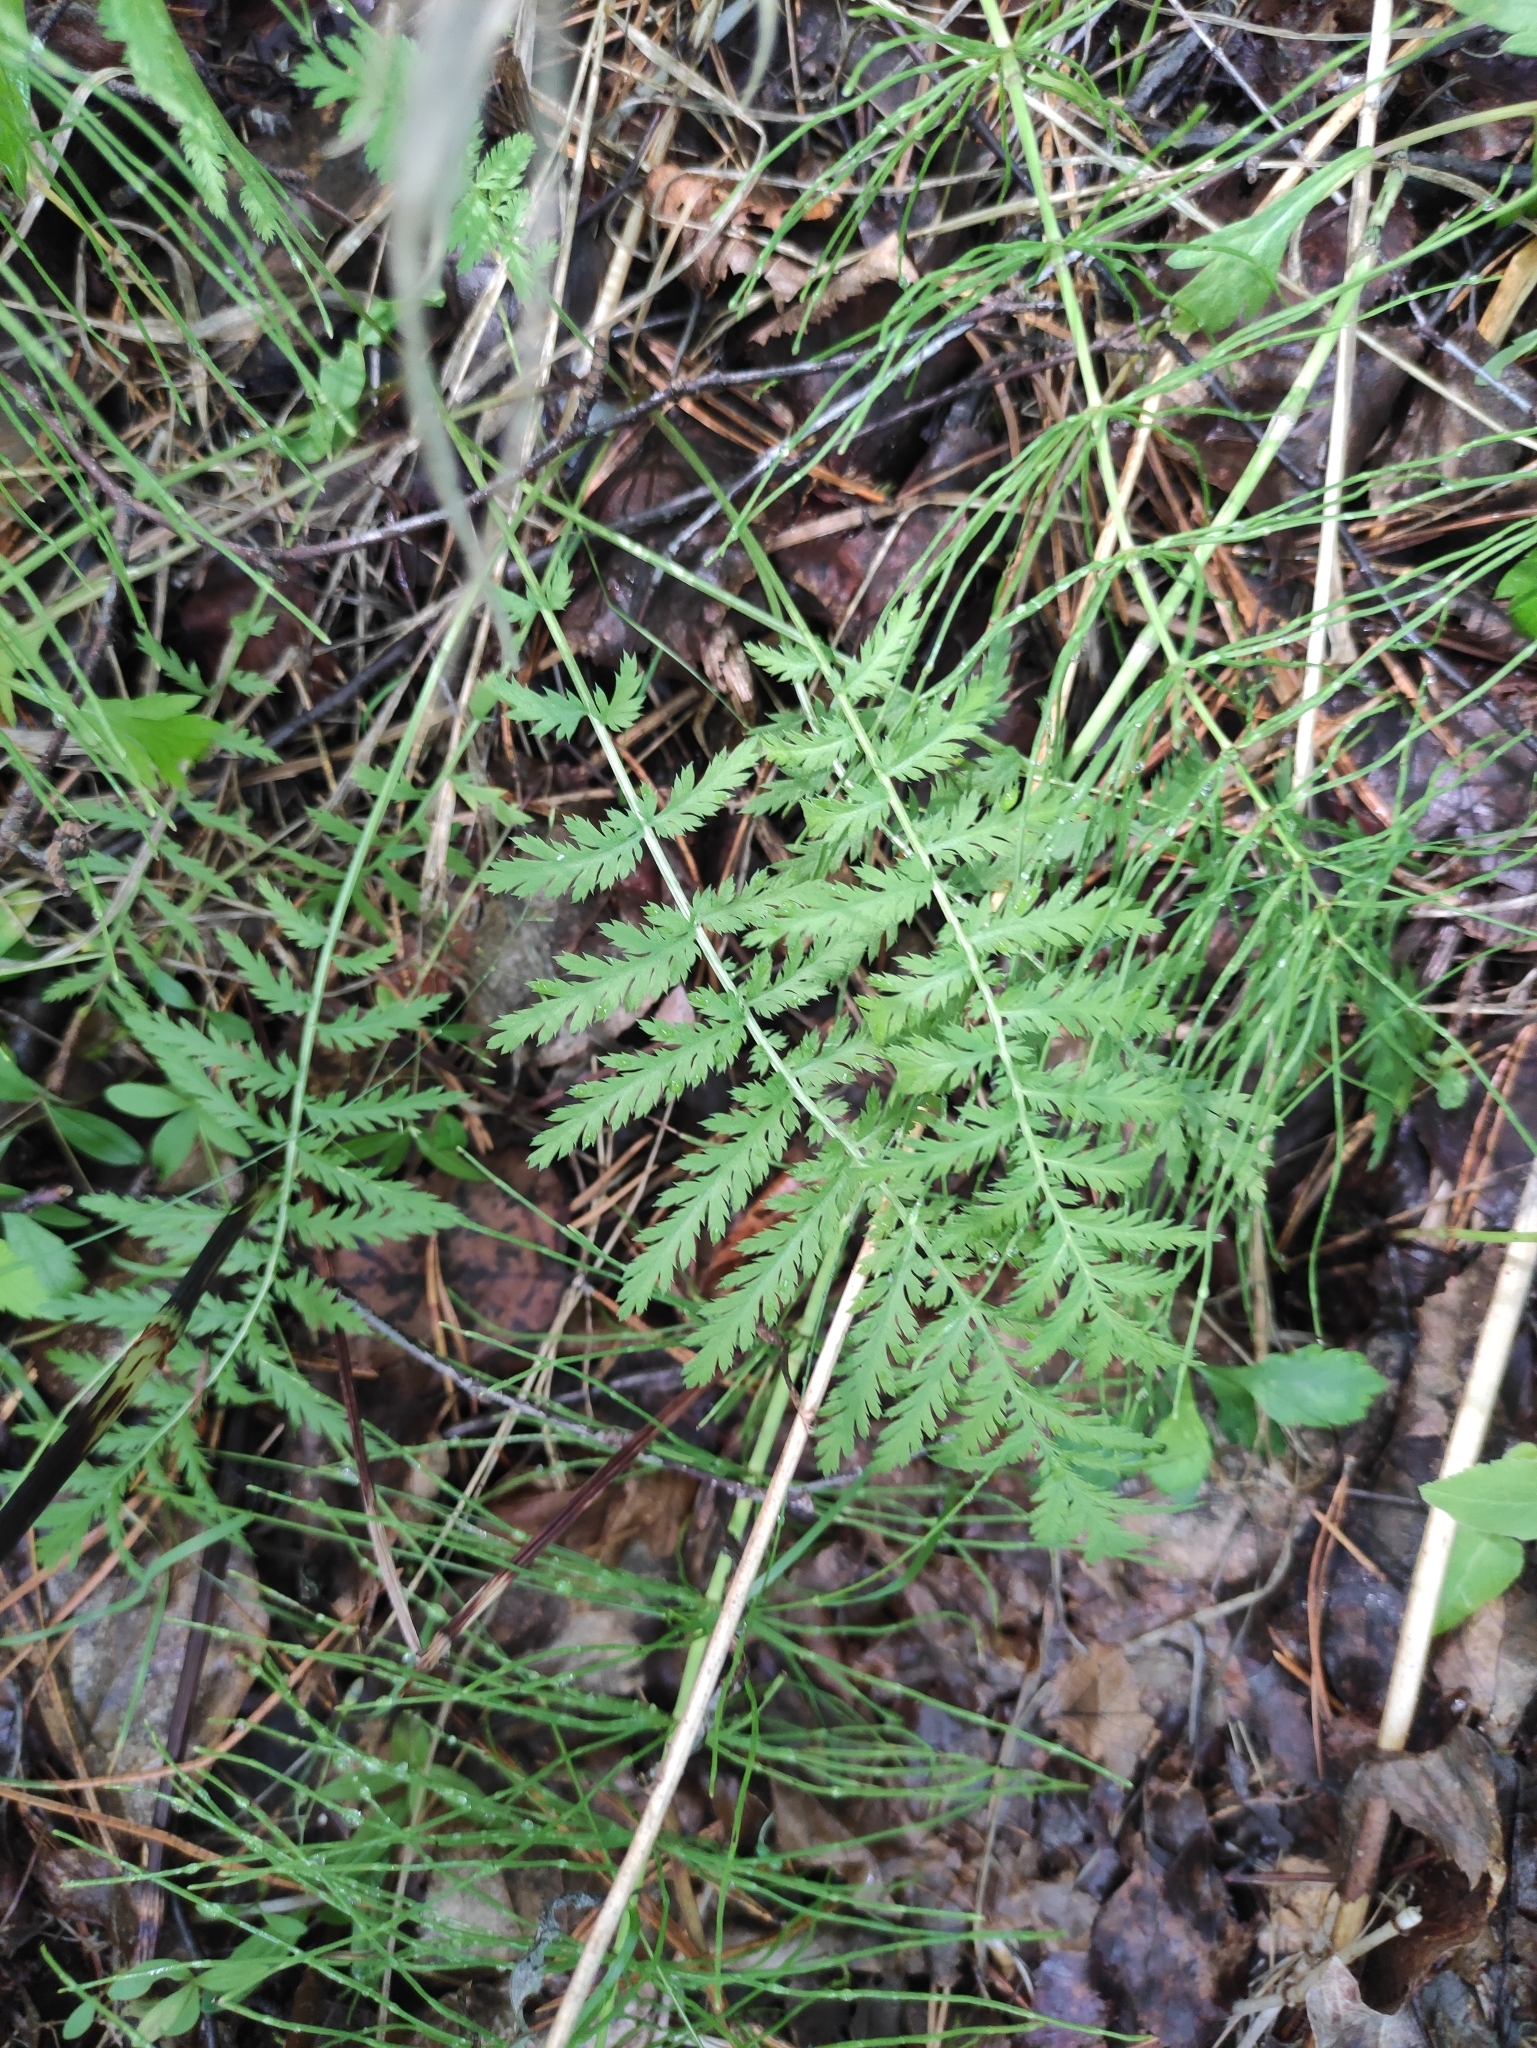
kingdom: Plantae
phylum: Tracheophyta
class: Magnoliopsida
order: Asterales
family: Asteraceae
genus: Artemisia
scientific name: Artemisia tanacetifolia
